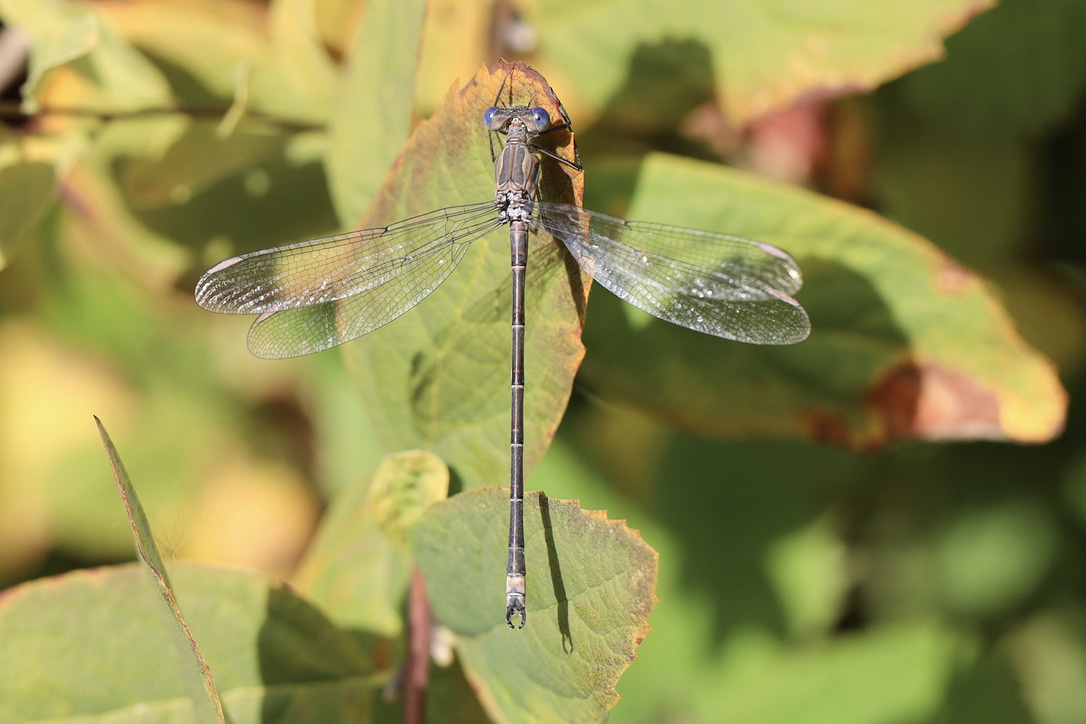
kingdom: Animalia
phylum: Arthropoda
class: Insecta
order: Odonata
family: Lestidae
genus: Archilestes
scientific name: Archilestes californicus
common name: California spreadwing
